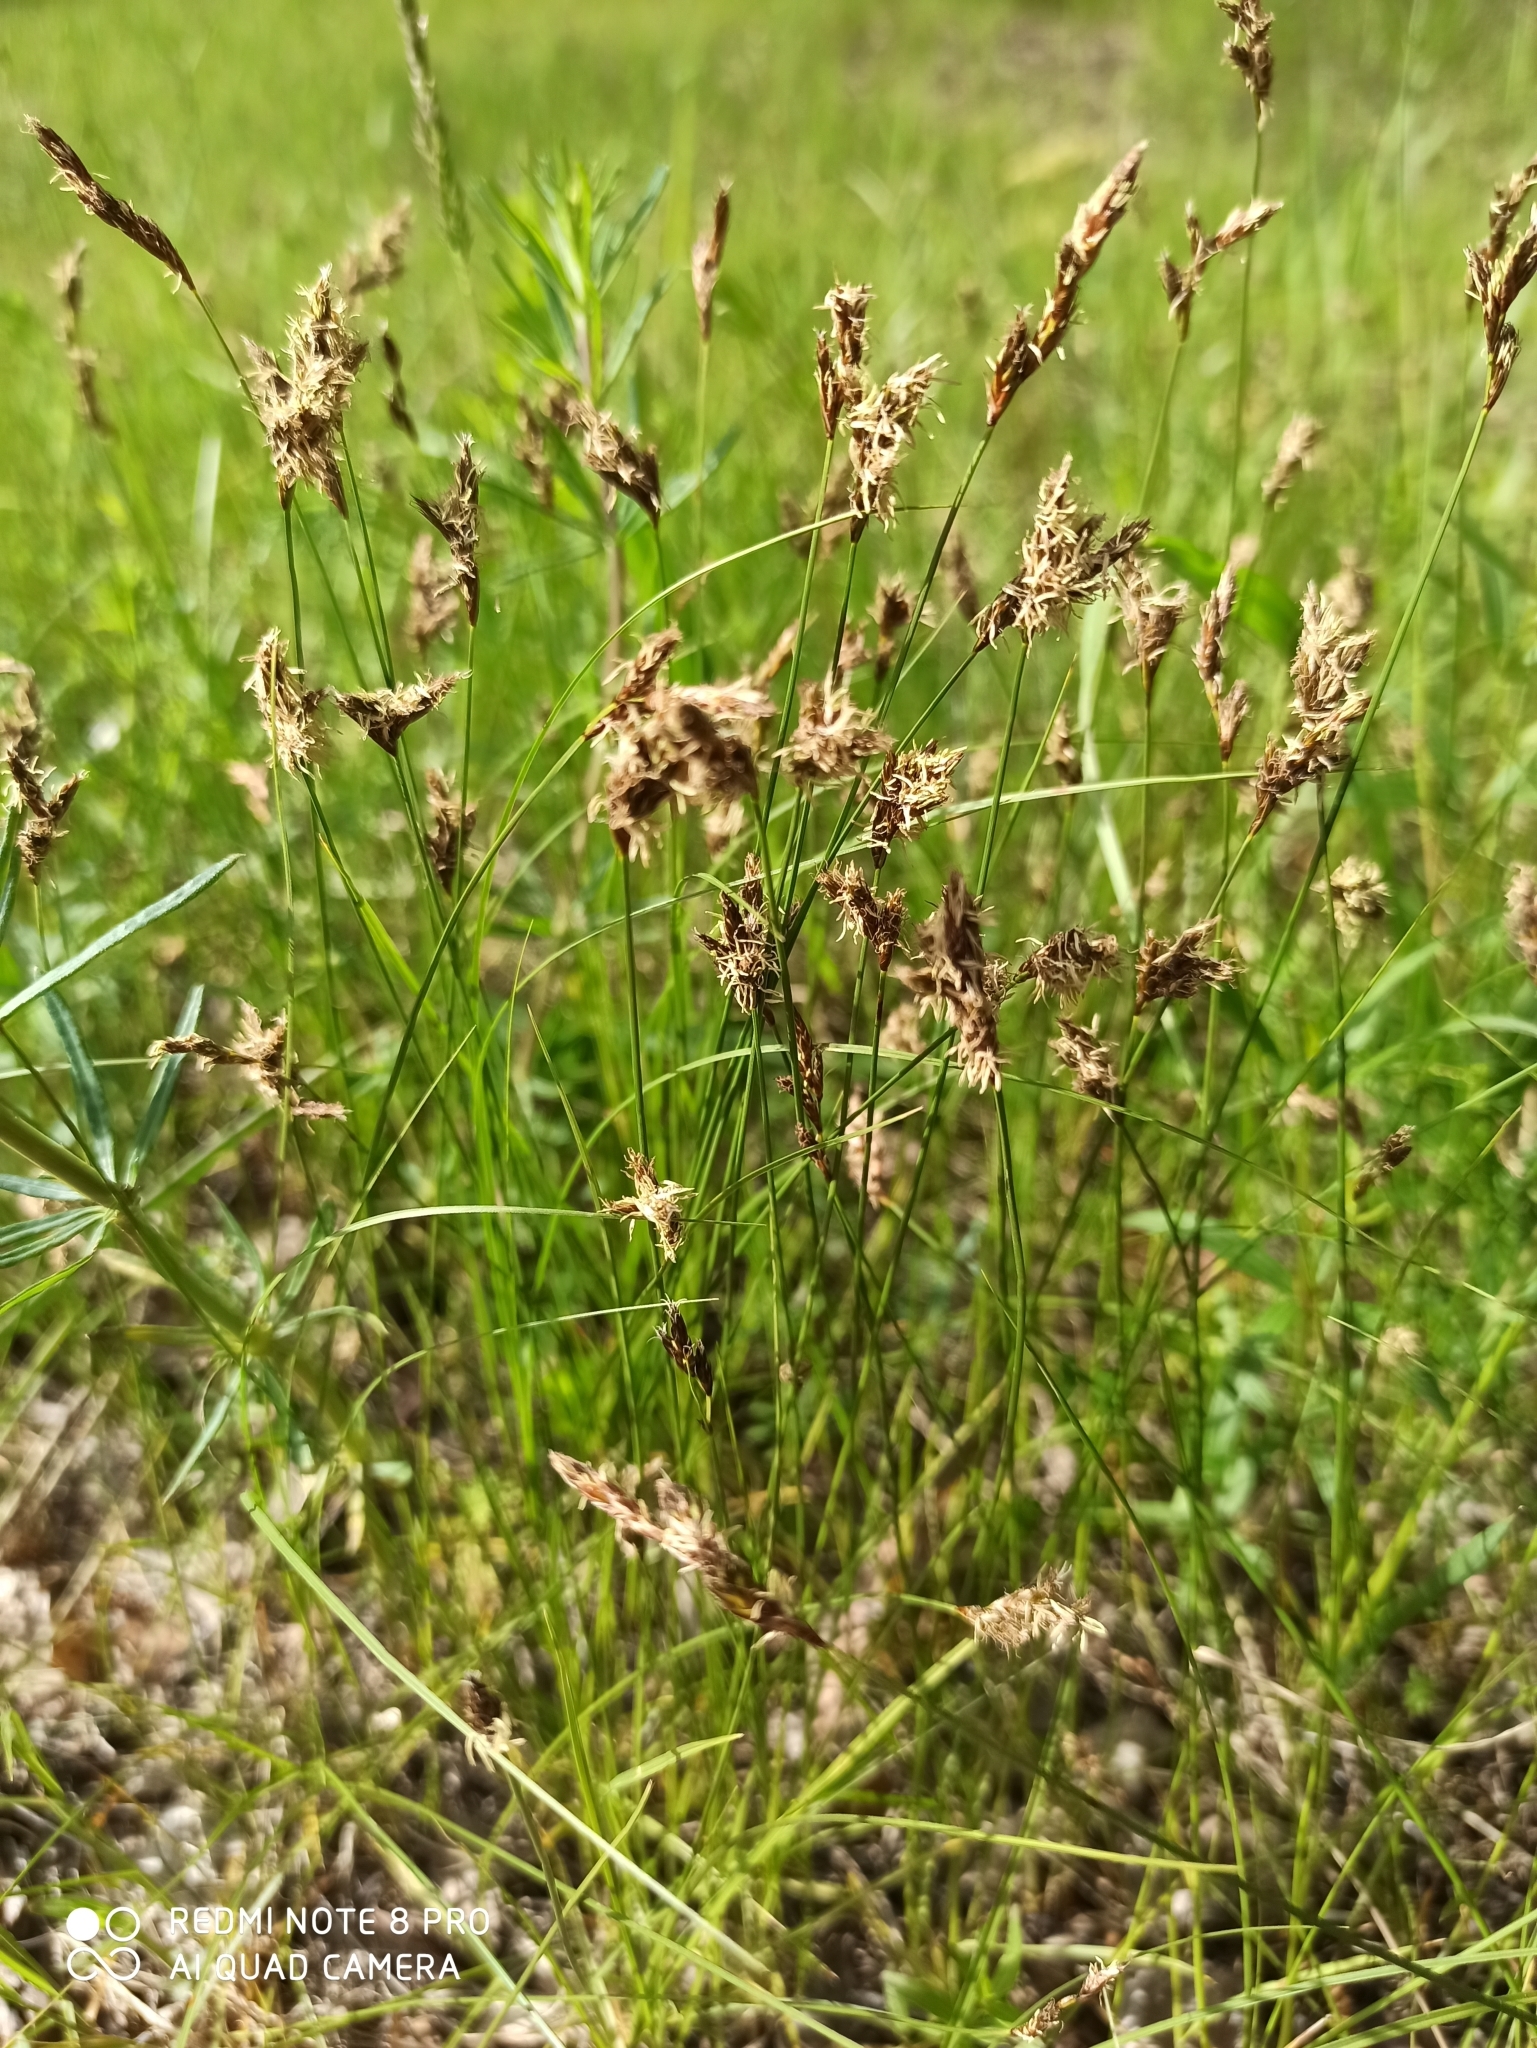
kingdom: Plantae
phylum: Tracheophyta
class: Liliopsida
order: Poales
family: Cyperaceae
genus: Carex
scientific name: Carex praecox
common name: Early sedge
